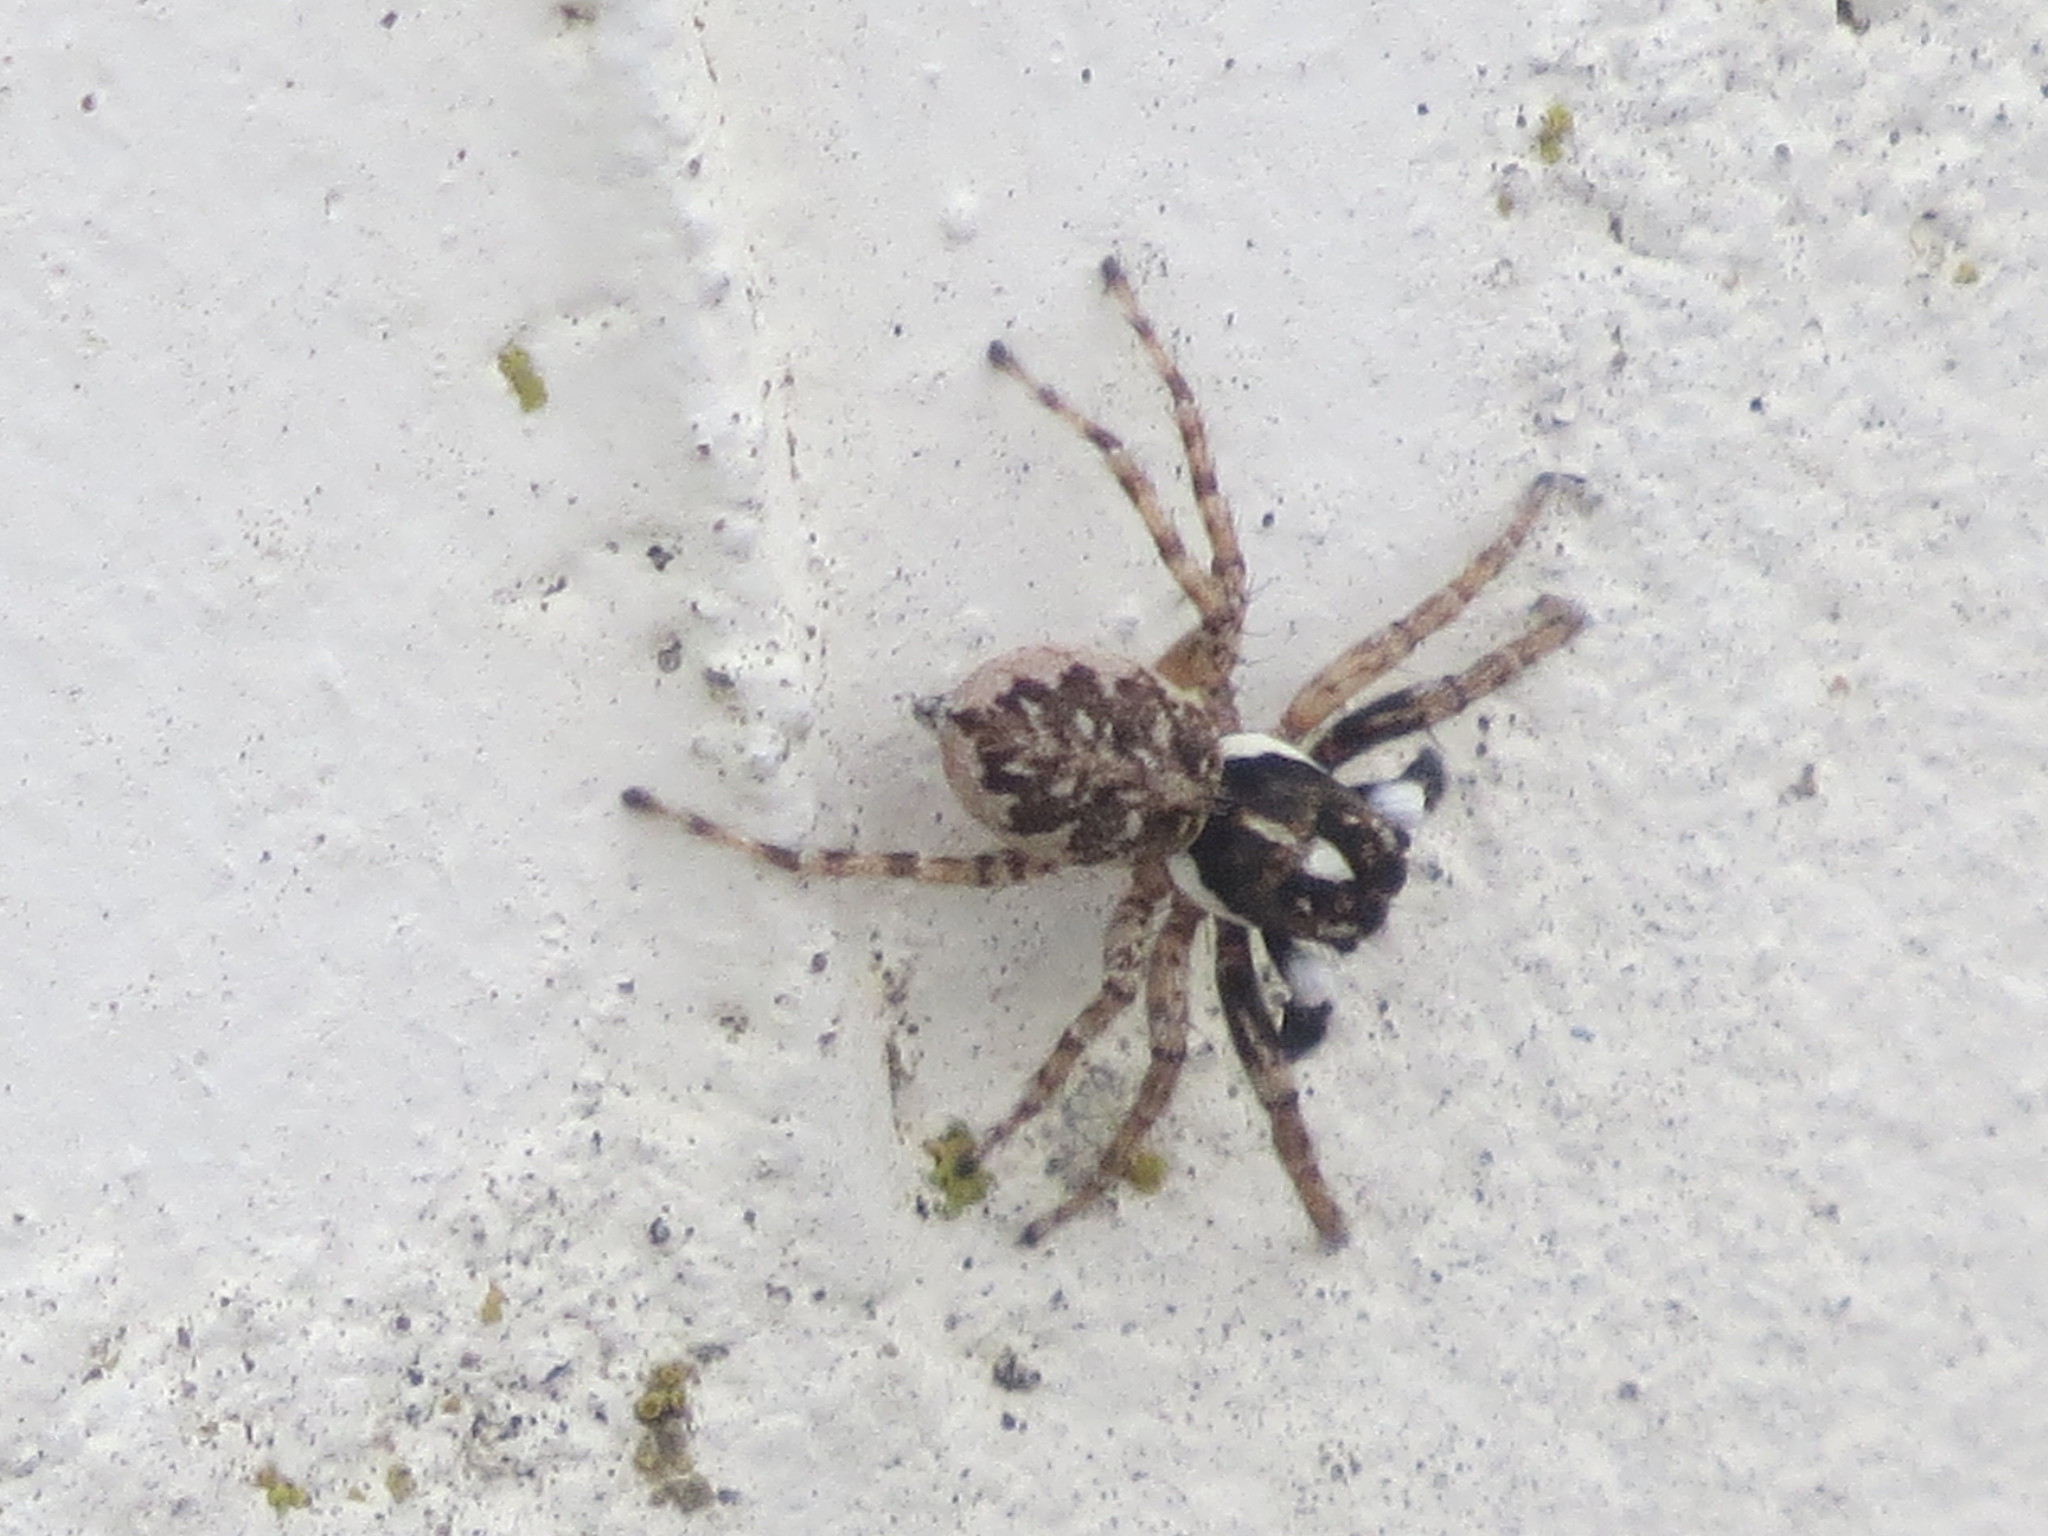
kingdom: Animalia
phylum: Arthropoda
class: Arachnida
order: Araneae
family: Salticidae
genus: Menemerus
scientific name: Menemerus semilimbatus
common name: Jumping spider
